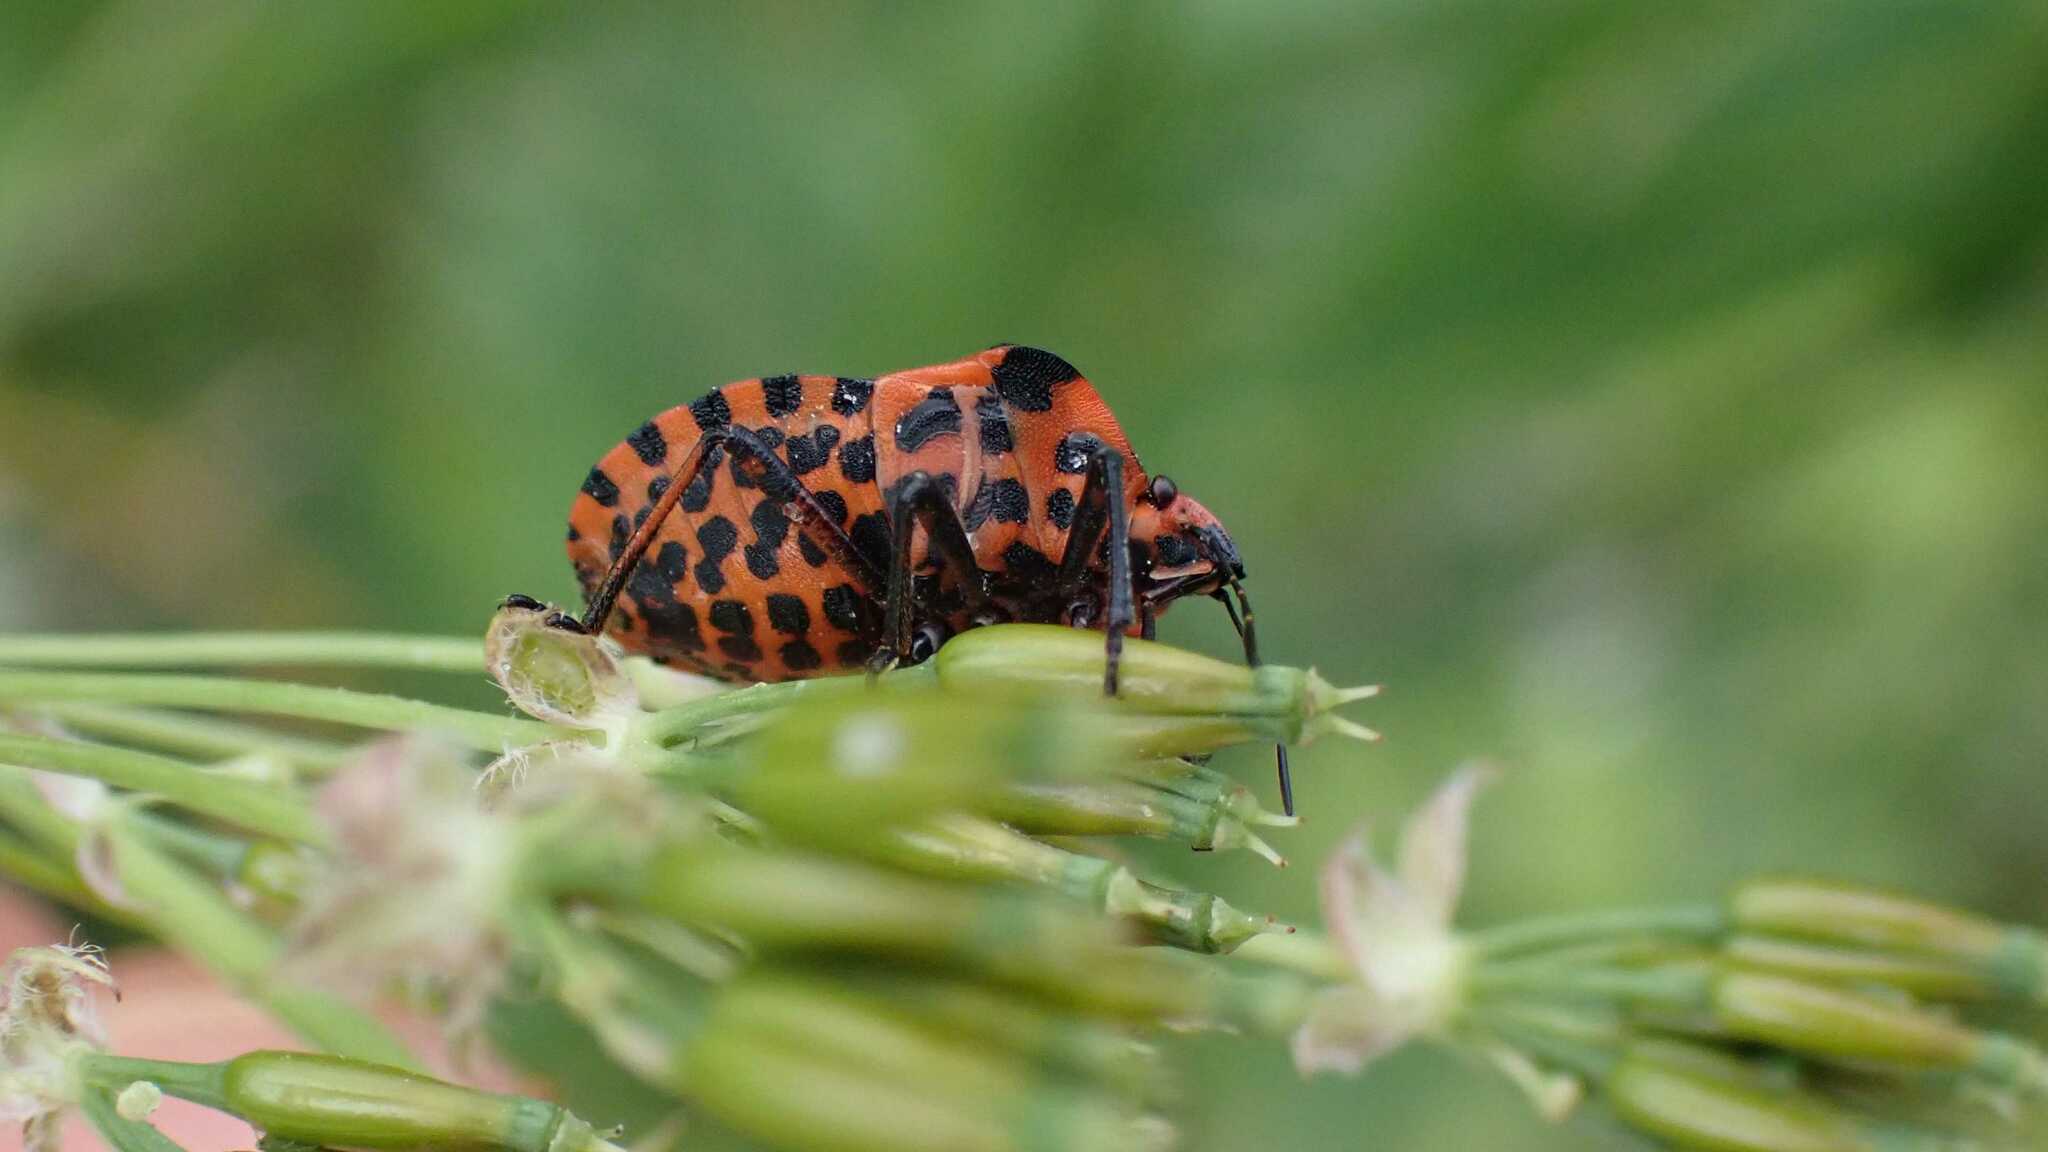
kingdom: Animalia
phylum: Arthropoda
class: Insecta
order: Hemiptera
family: Pentatomidae
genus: Graphosoma
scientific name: Graphosoma italicum
